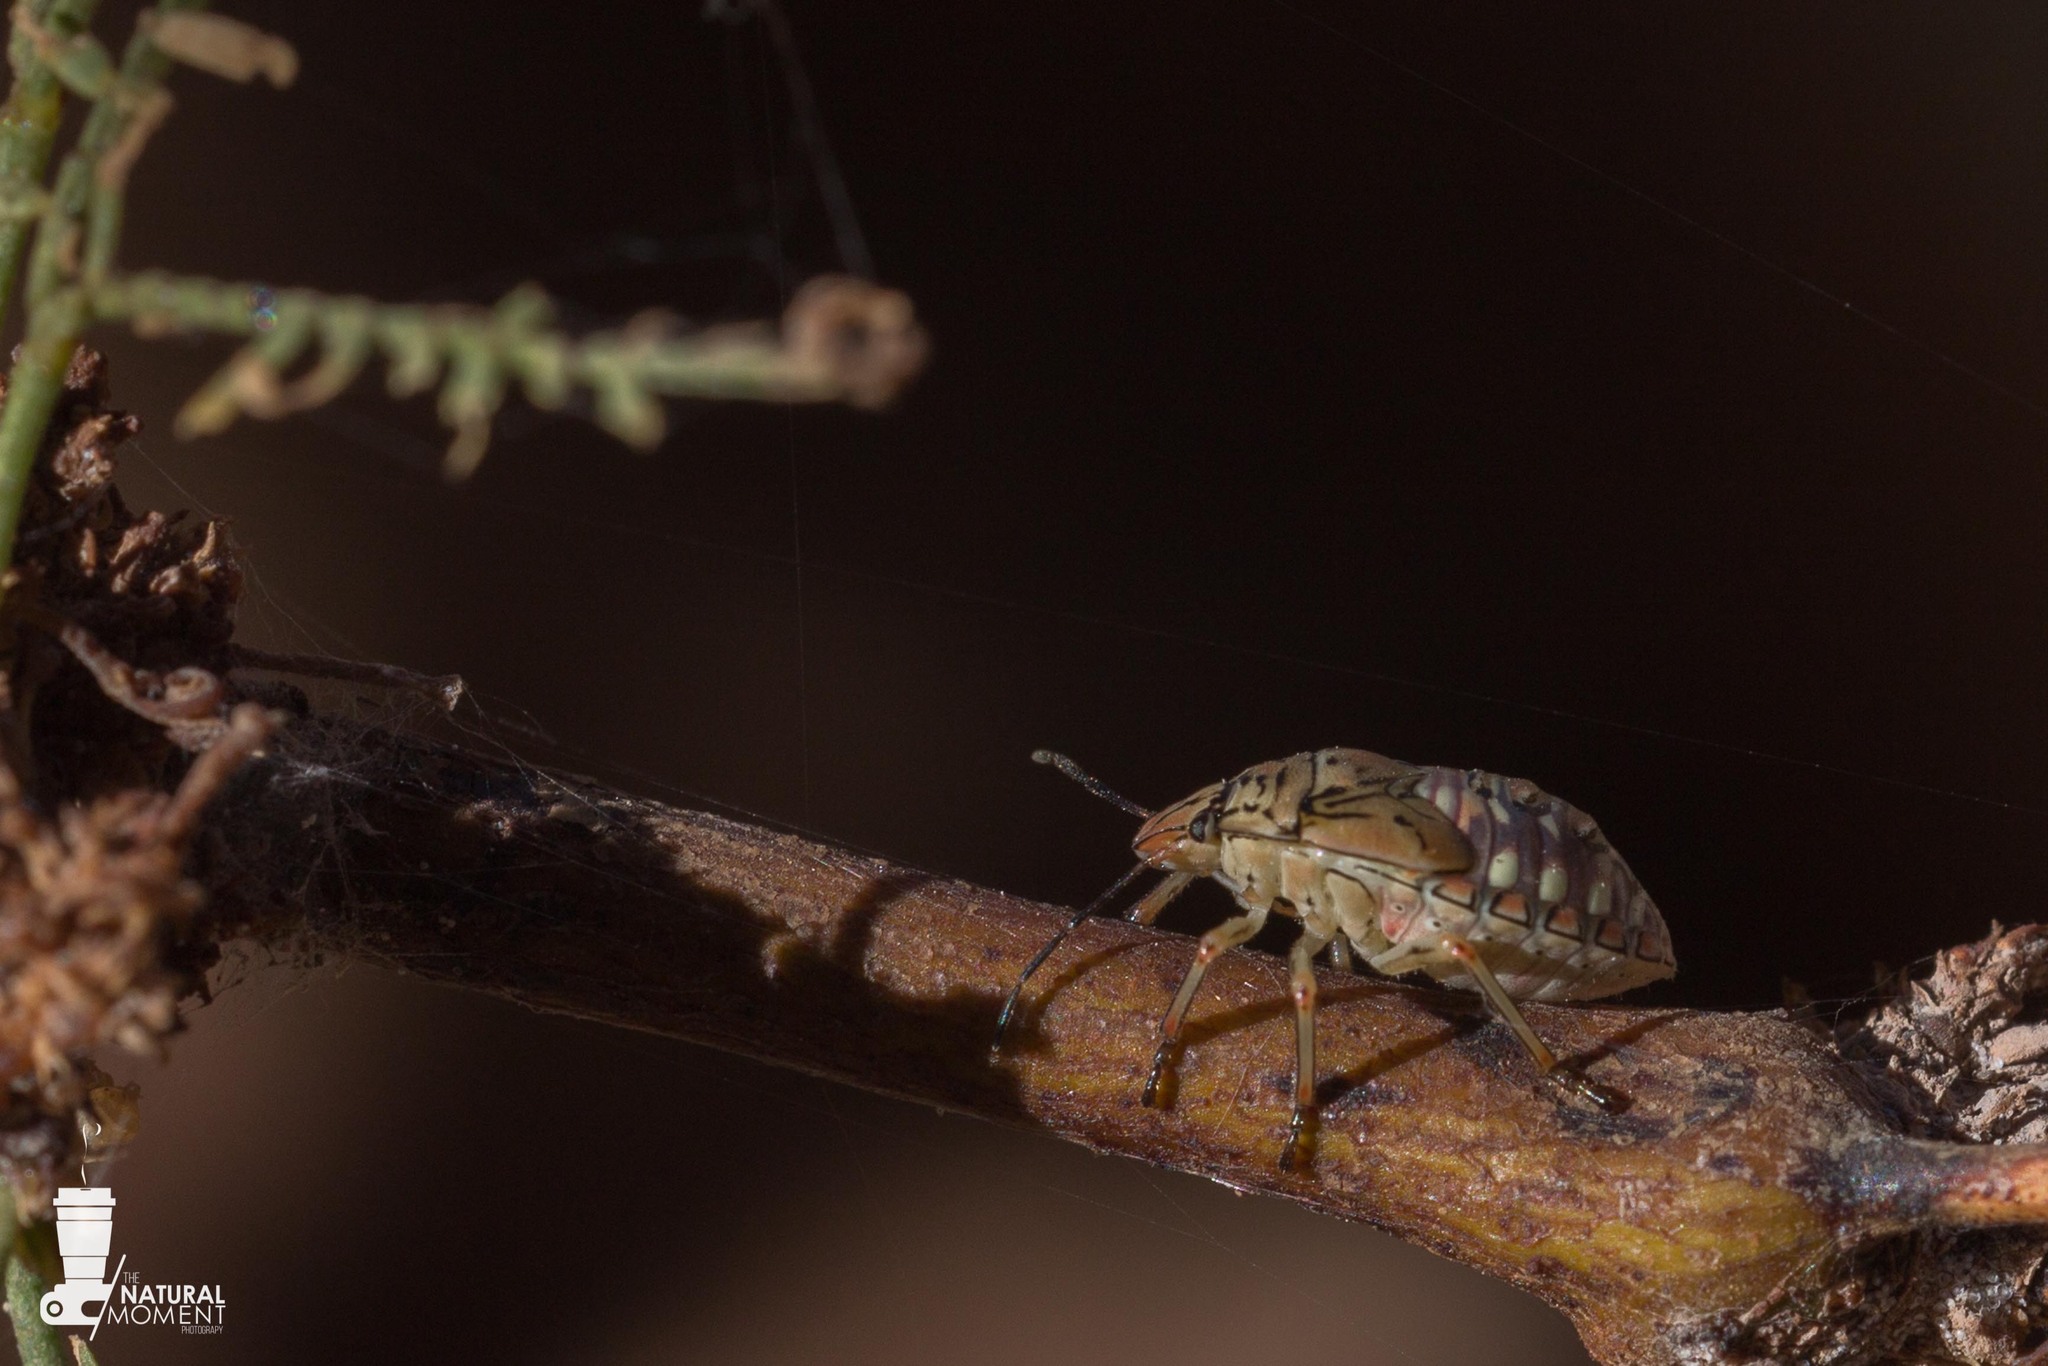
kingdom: Animalia
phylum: Arthropoda
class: Insecta
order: Hemiptera
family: Pentatomidae
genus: Chinavia
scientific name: Chinavia
